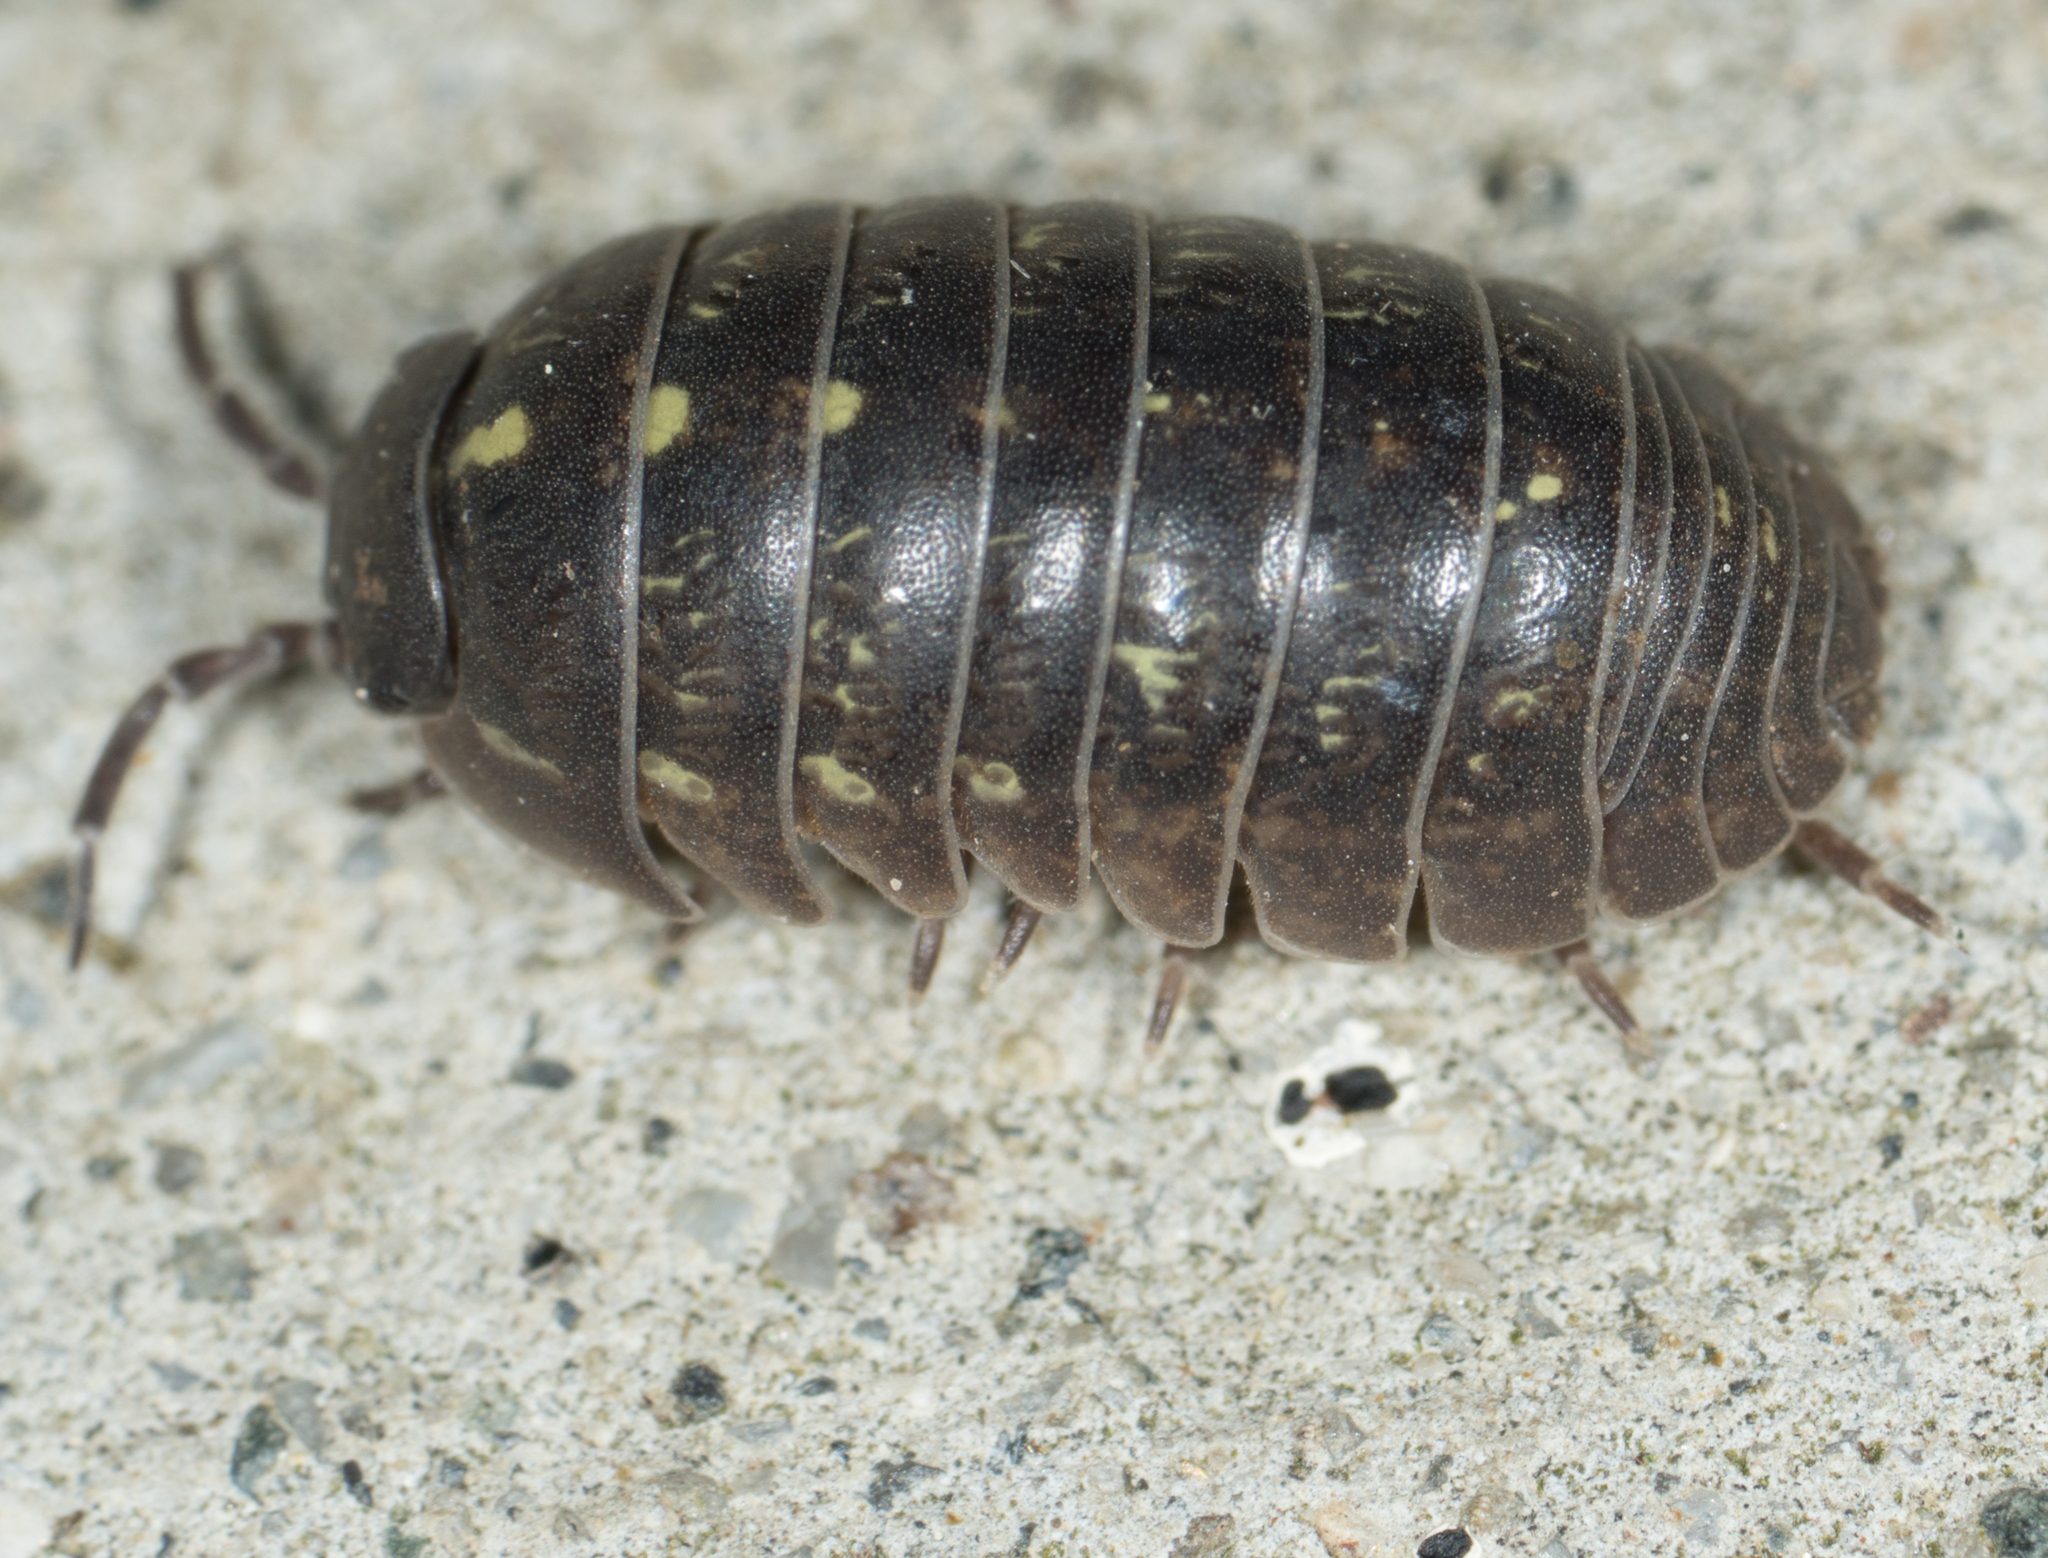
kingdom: Animalia
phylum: Arthropoda
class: Malacostraca
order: Isopoda
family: Armadillidiidae
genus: Armadillidium
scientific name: Armadillidium vulgare
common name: Common pill woodlouse
